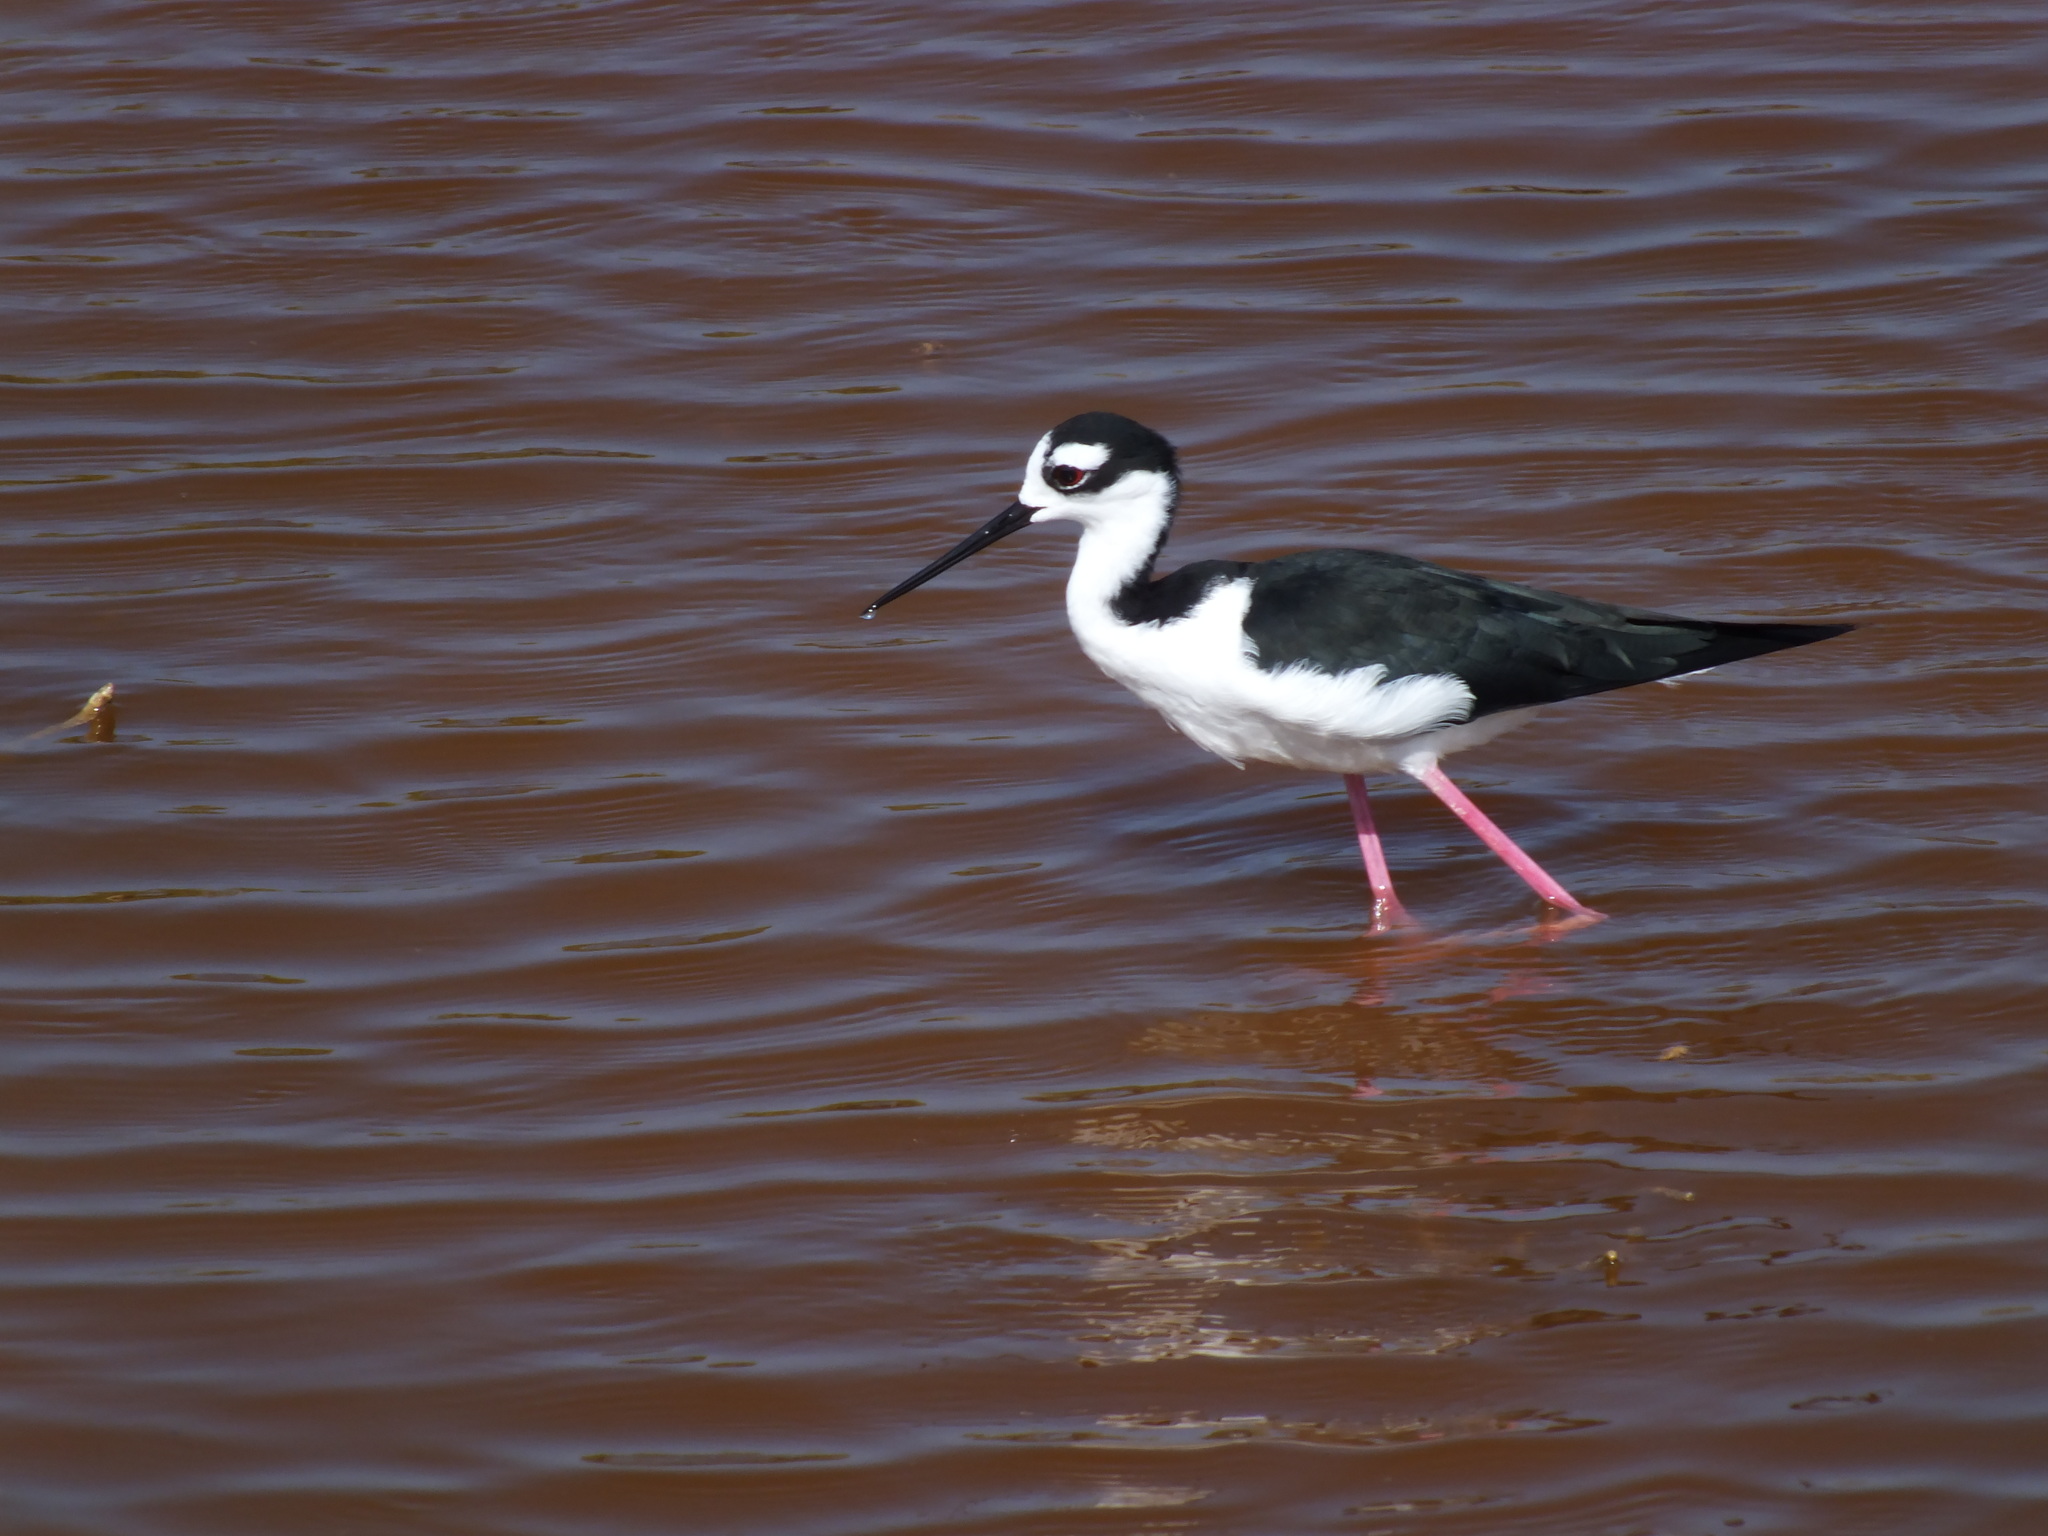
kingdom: Animalia
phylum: Chordata
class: Aves
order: Charadriiformes
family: Recurvirostridae
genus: Himantopus
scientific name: Himantopus mexicanus
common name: Black-necked stilt
